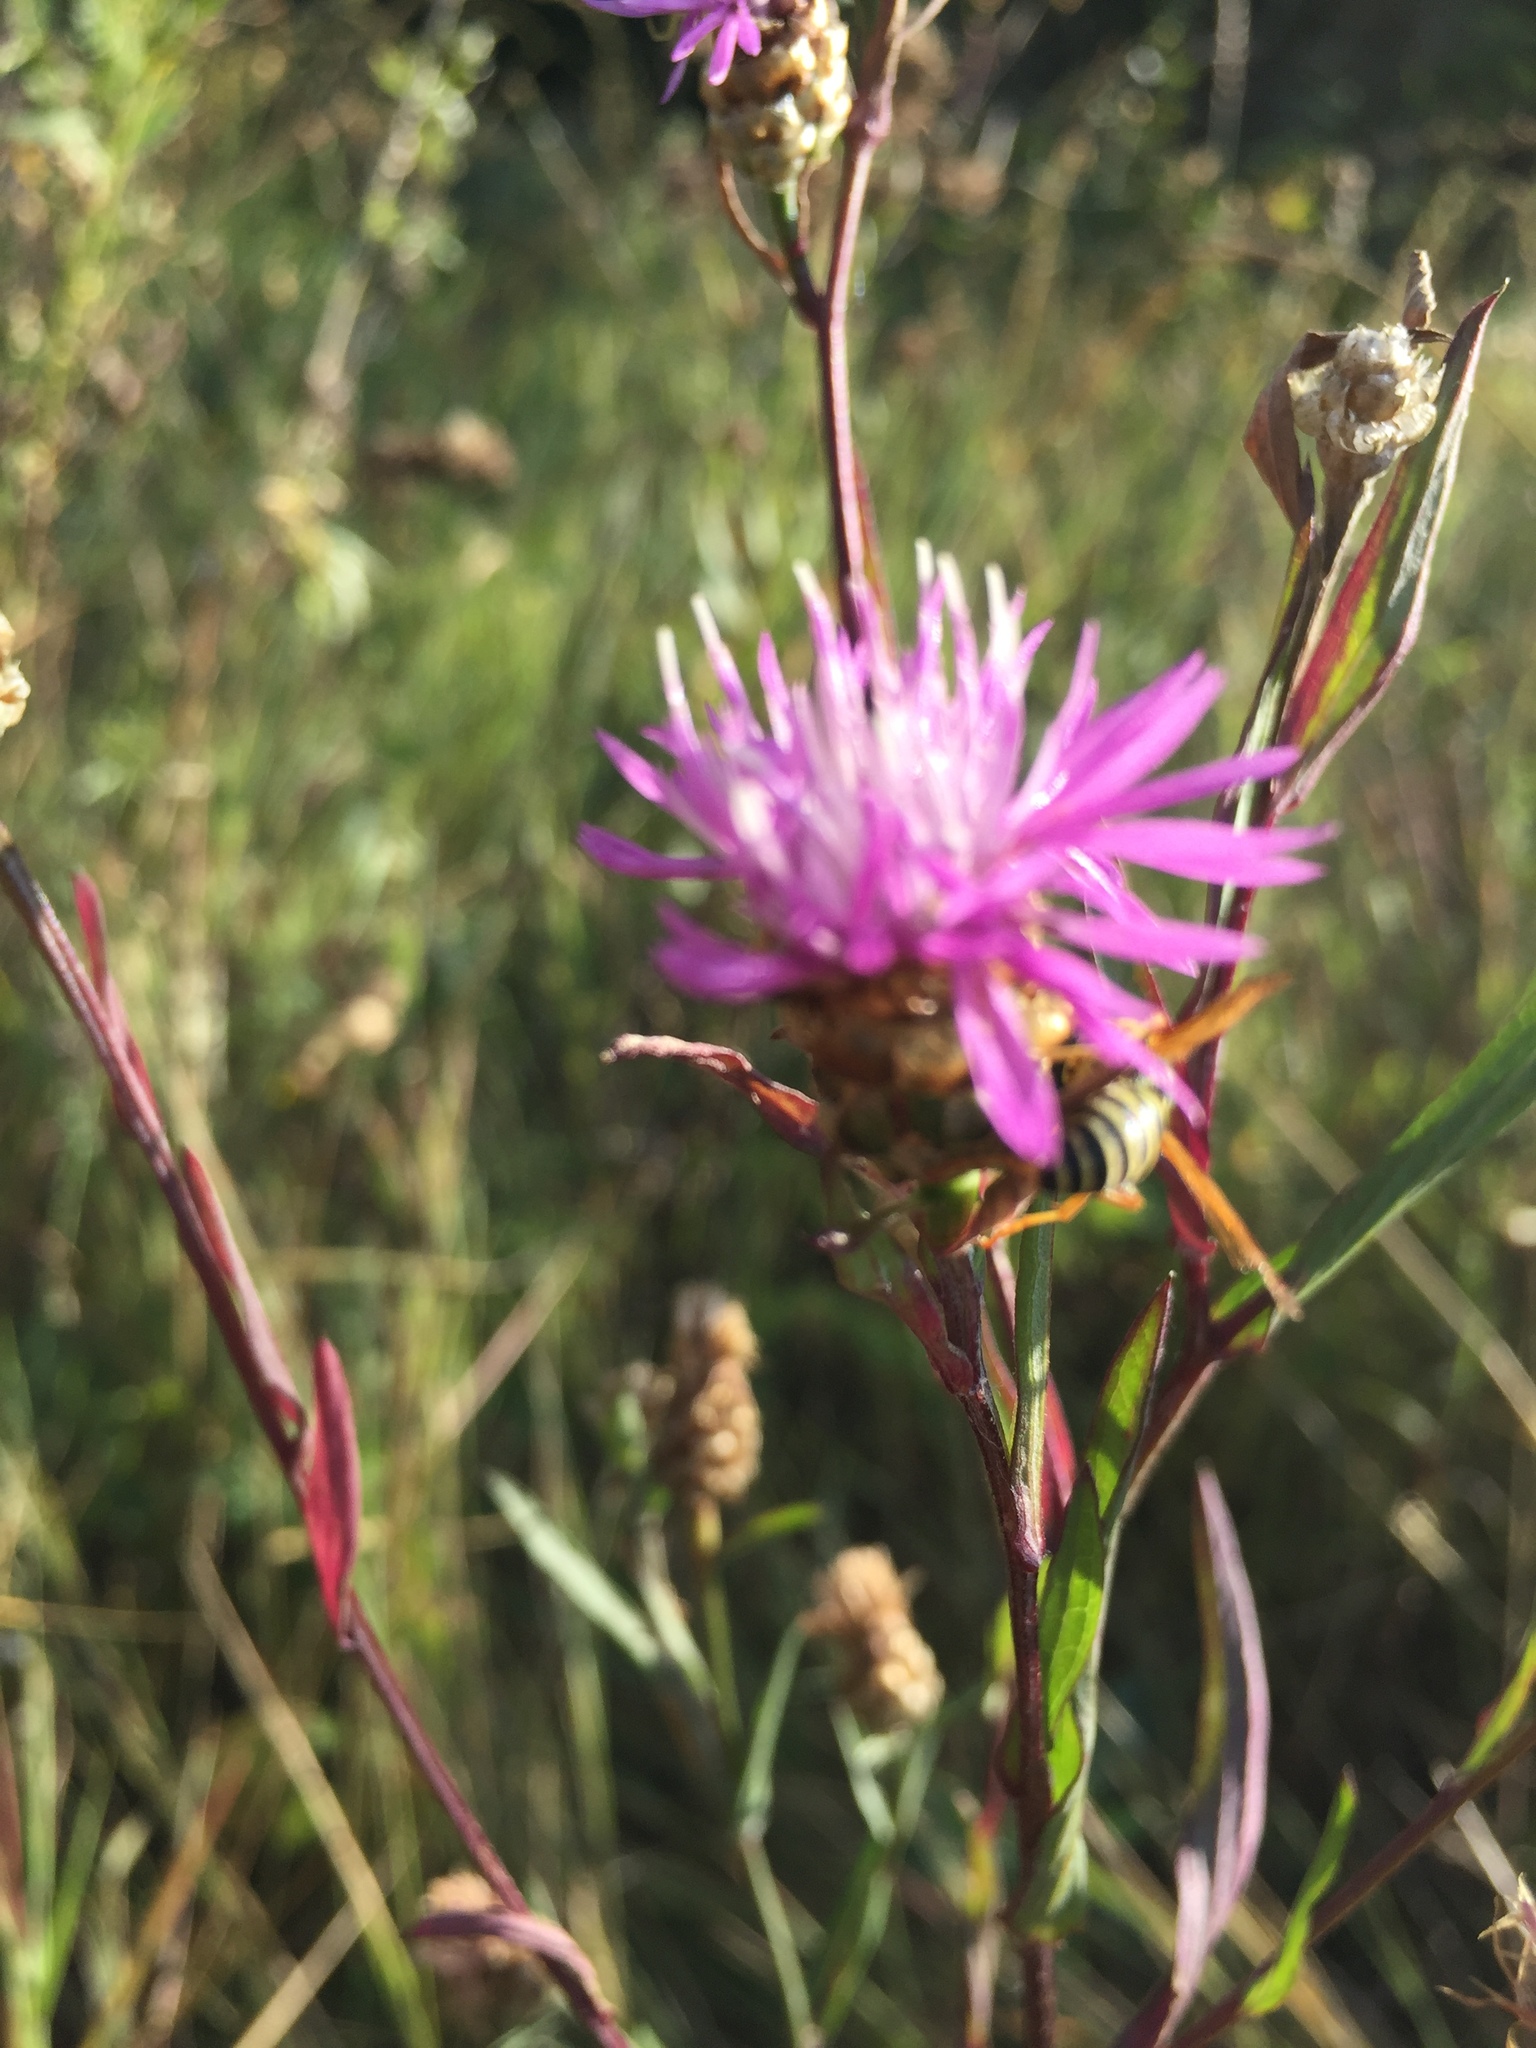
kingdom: Plantae
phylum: Tracheophyta
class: Magnoliopsida
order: Asterales
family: Asteraceae
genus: Centaurea
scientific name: Centaurea jacea
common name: Brown knapweed
